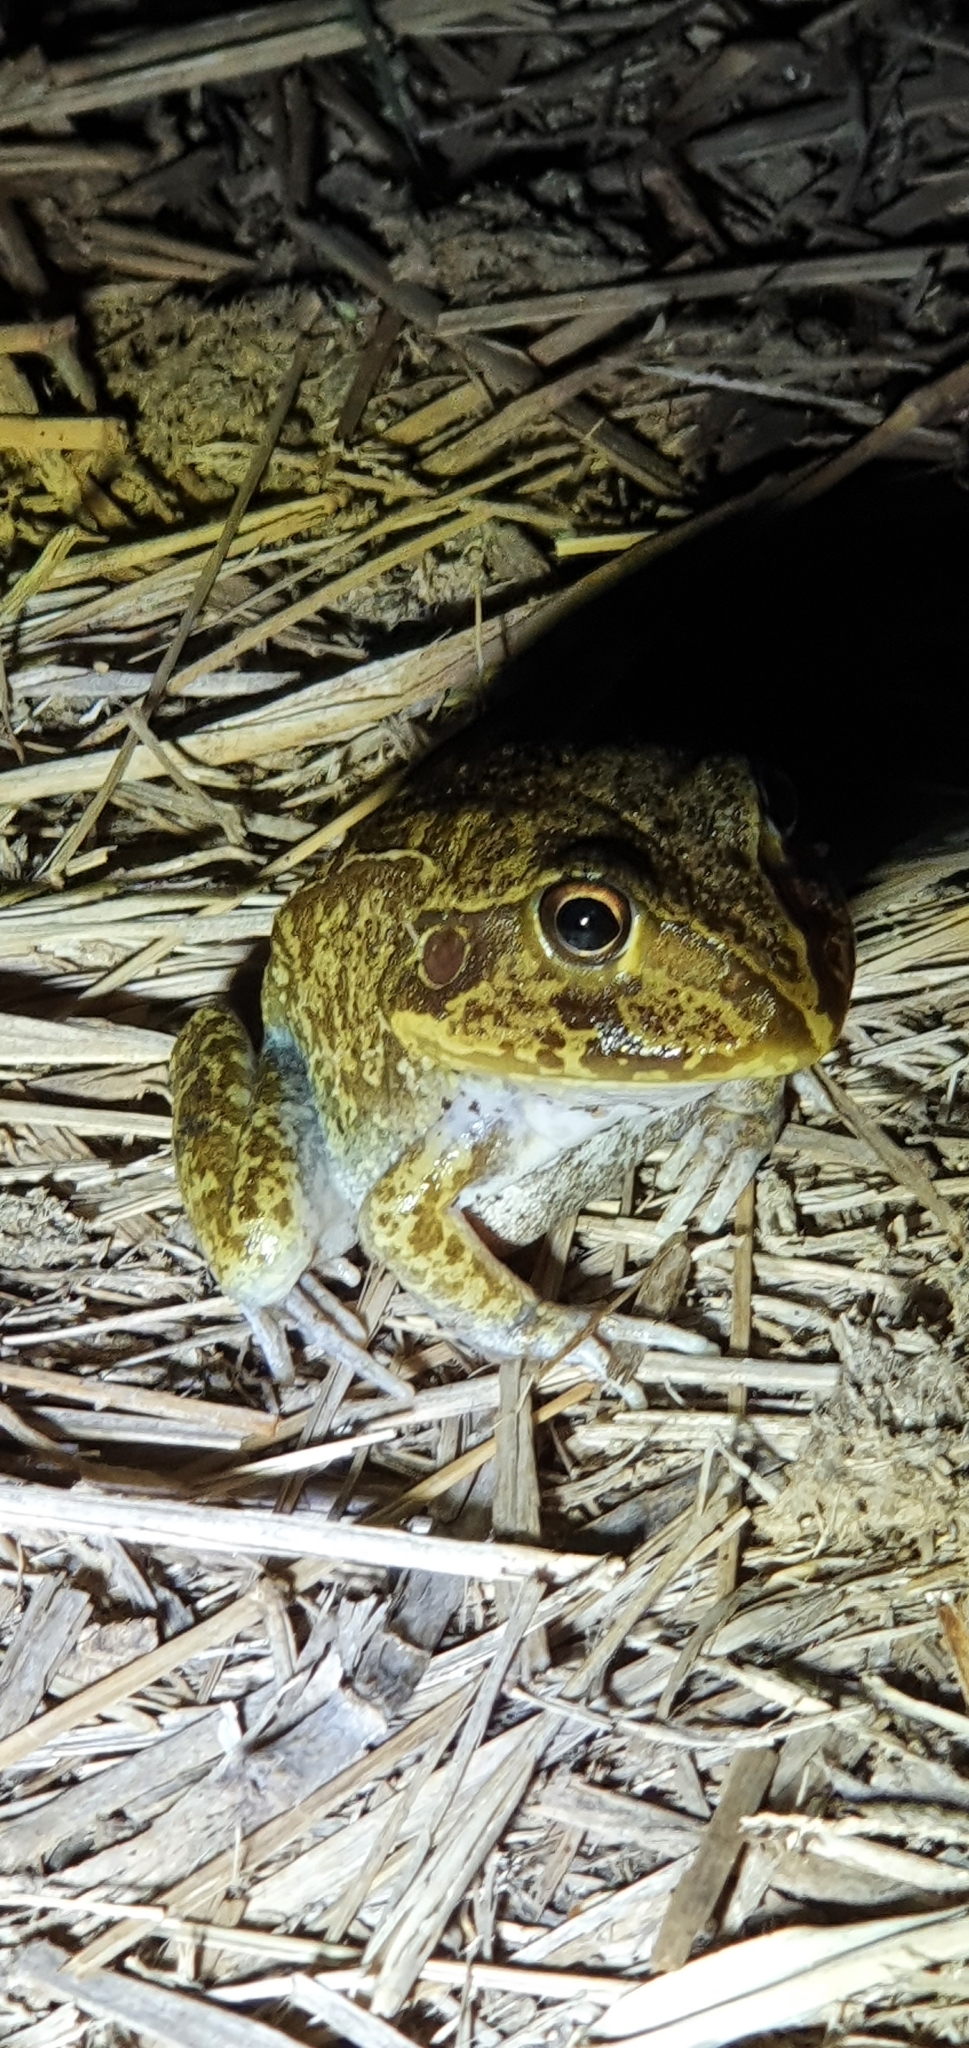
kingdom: Animalia
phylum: Chordata
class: Amphibia
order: Anura
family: Pelodryadidae
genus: Ranoidea
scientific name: Ranoidea novaehollandiae
